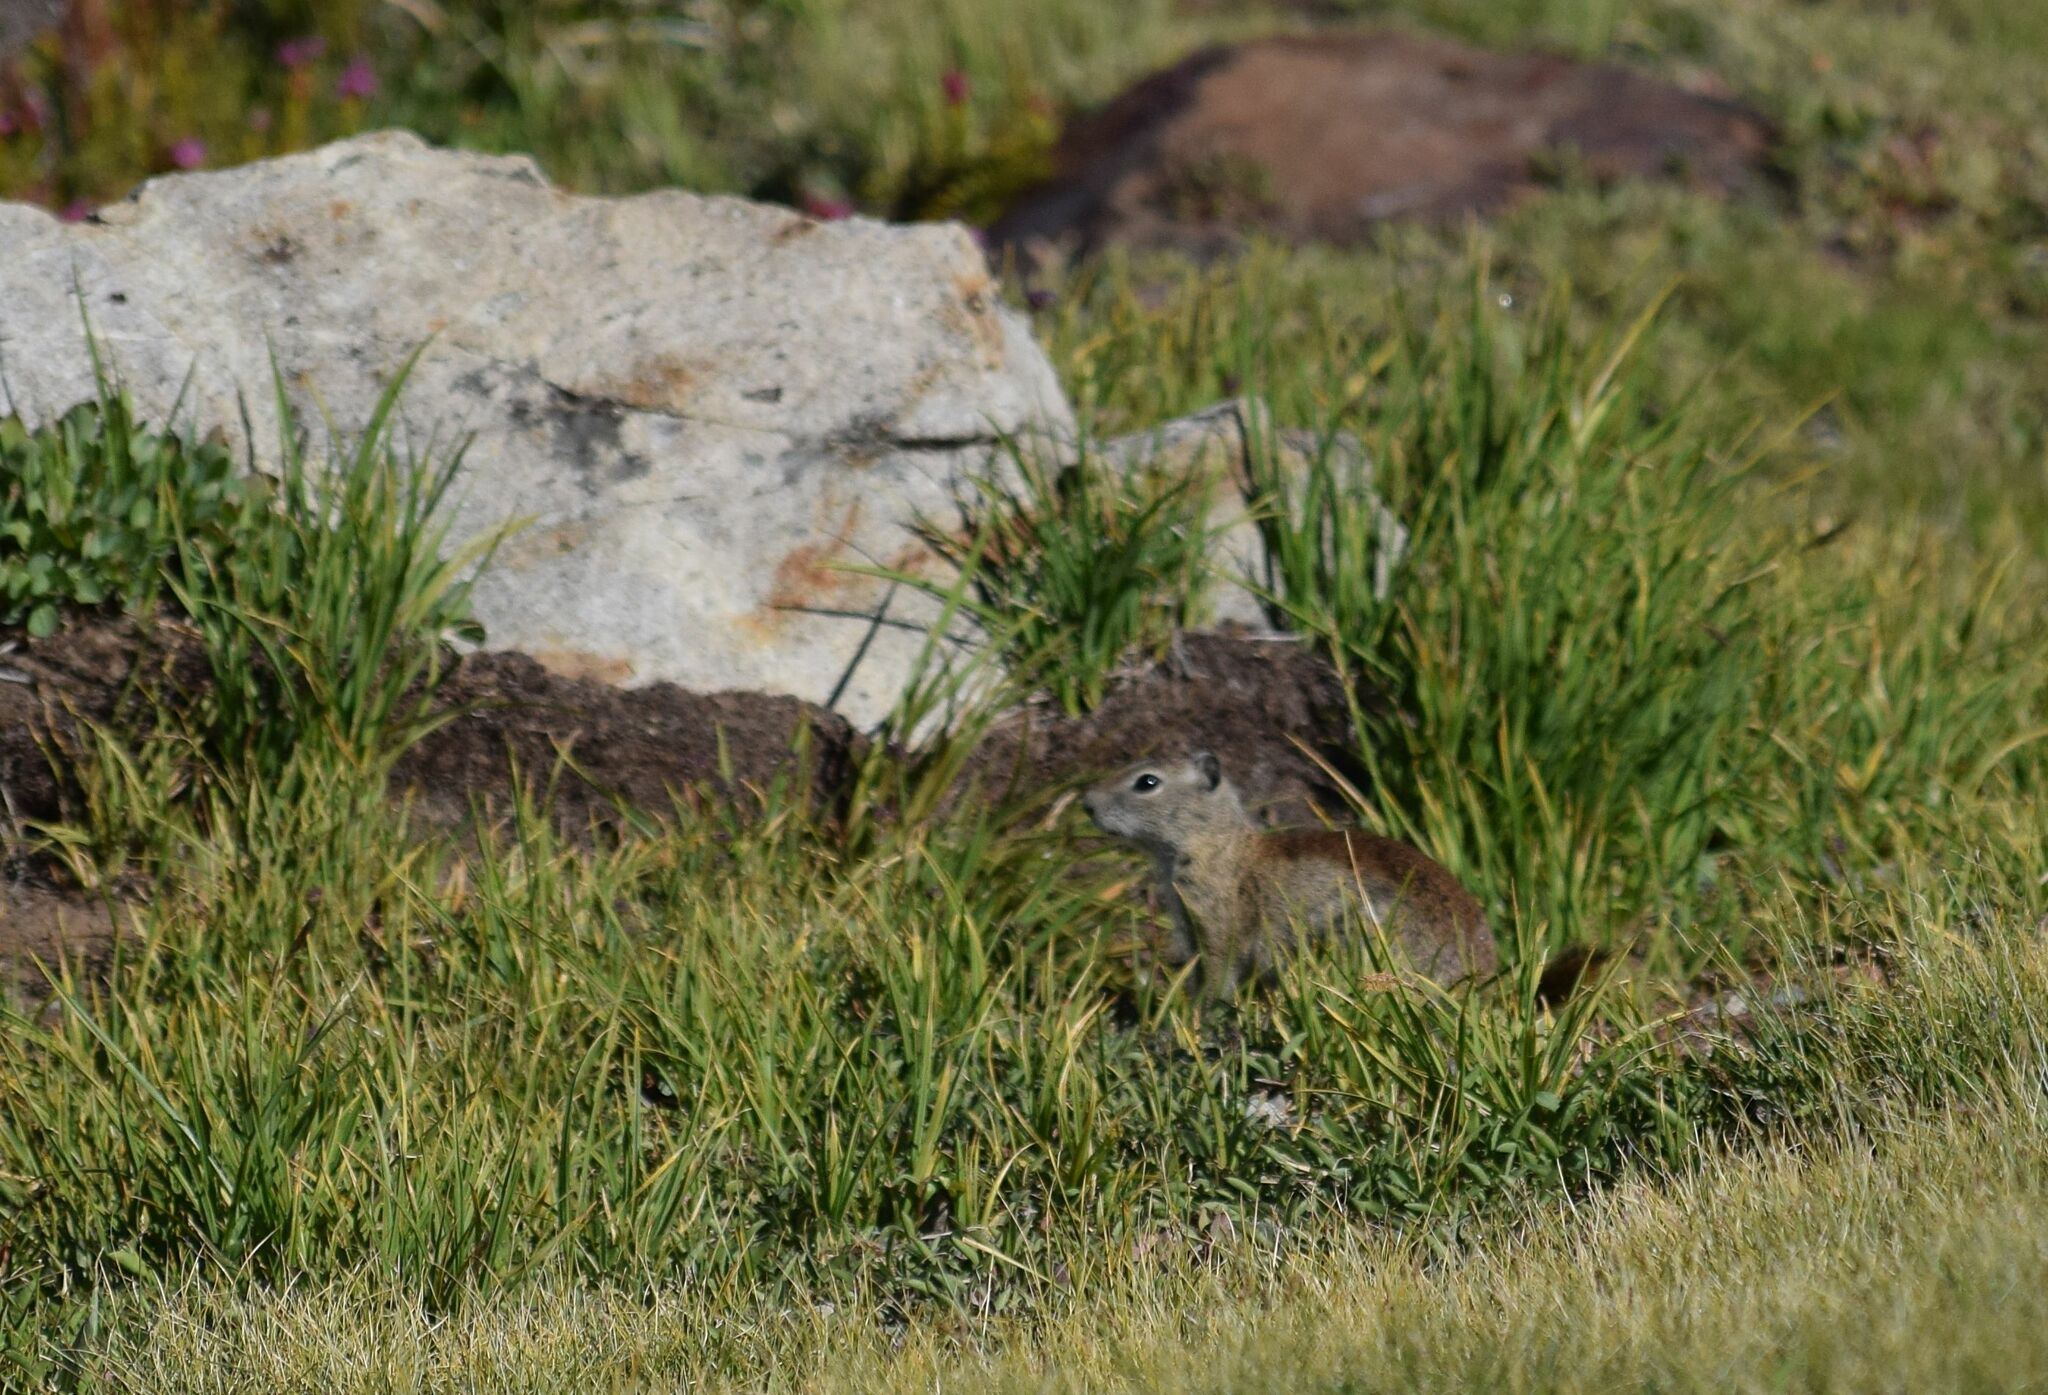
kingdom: Animalia
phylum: Chordata
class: Mammalia
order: Rodentia
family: Sciuridae
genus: Urocitellus
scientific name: Urocitellus beldingi
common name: Belding's ground squirrel
